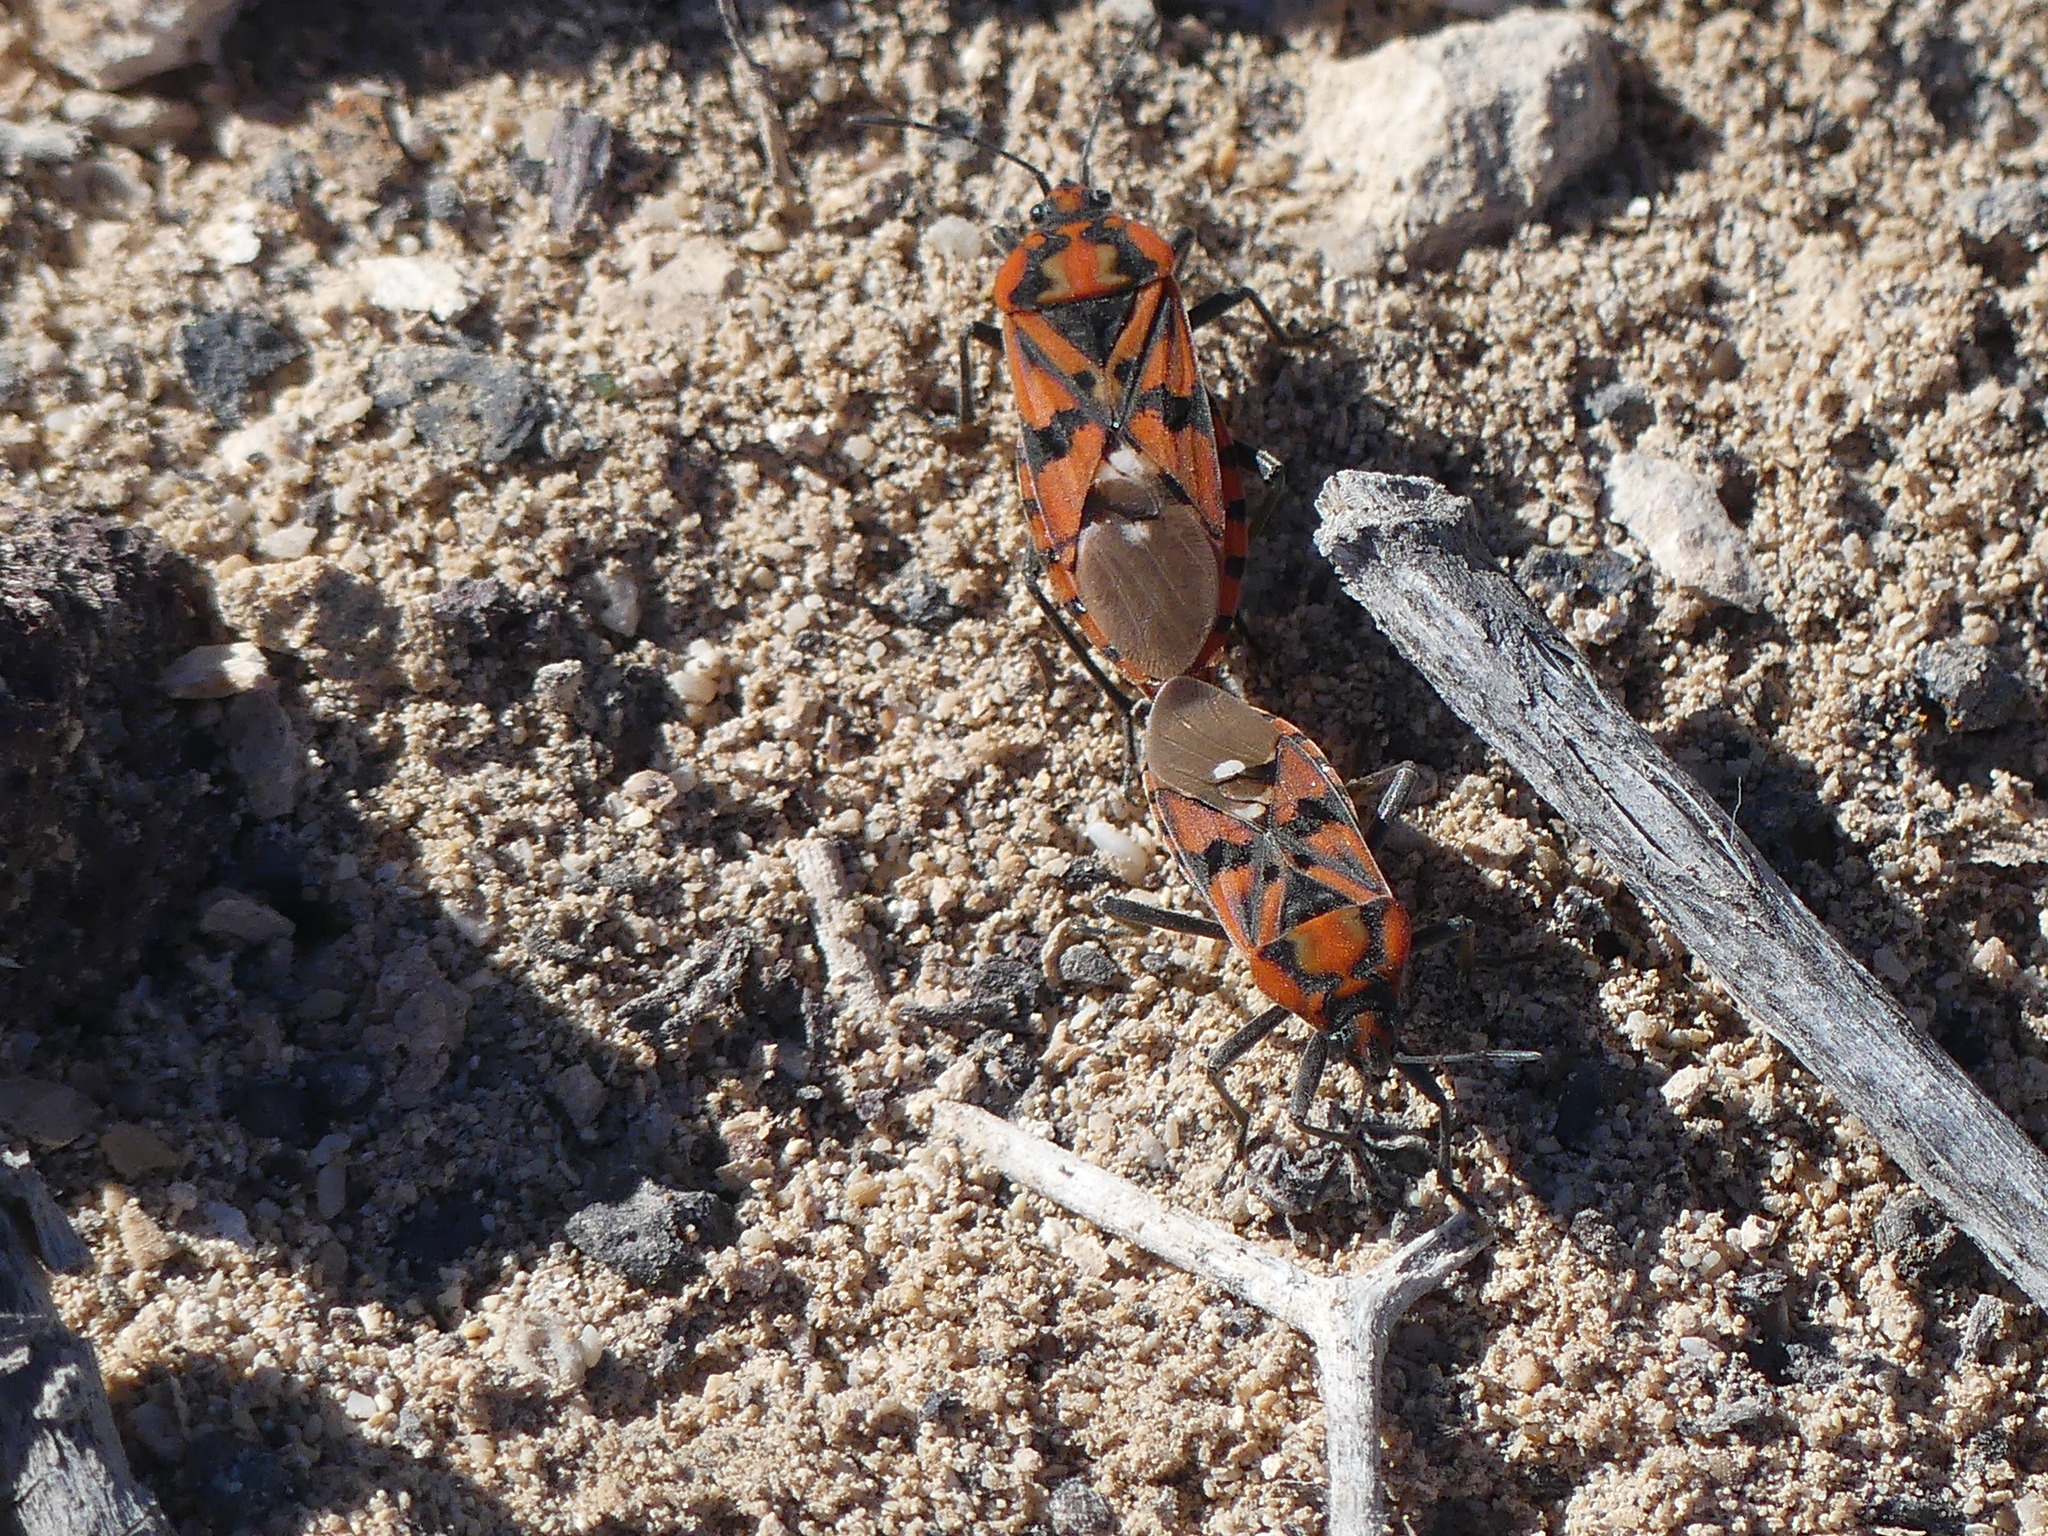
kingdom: Animalia
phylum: Arthropoda
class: Insecta
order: Hemiptera
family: Lygaeidae
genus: Spilostethus
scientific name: Spilostethus pandurus
